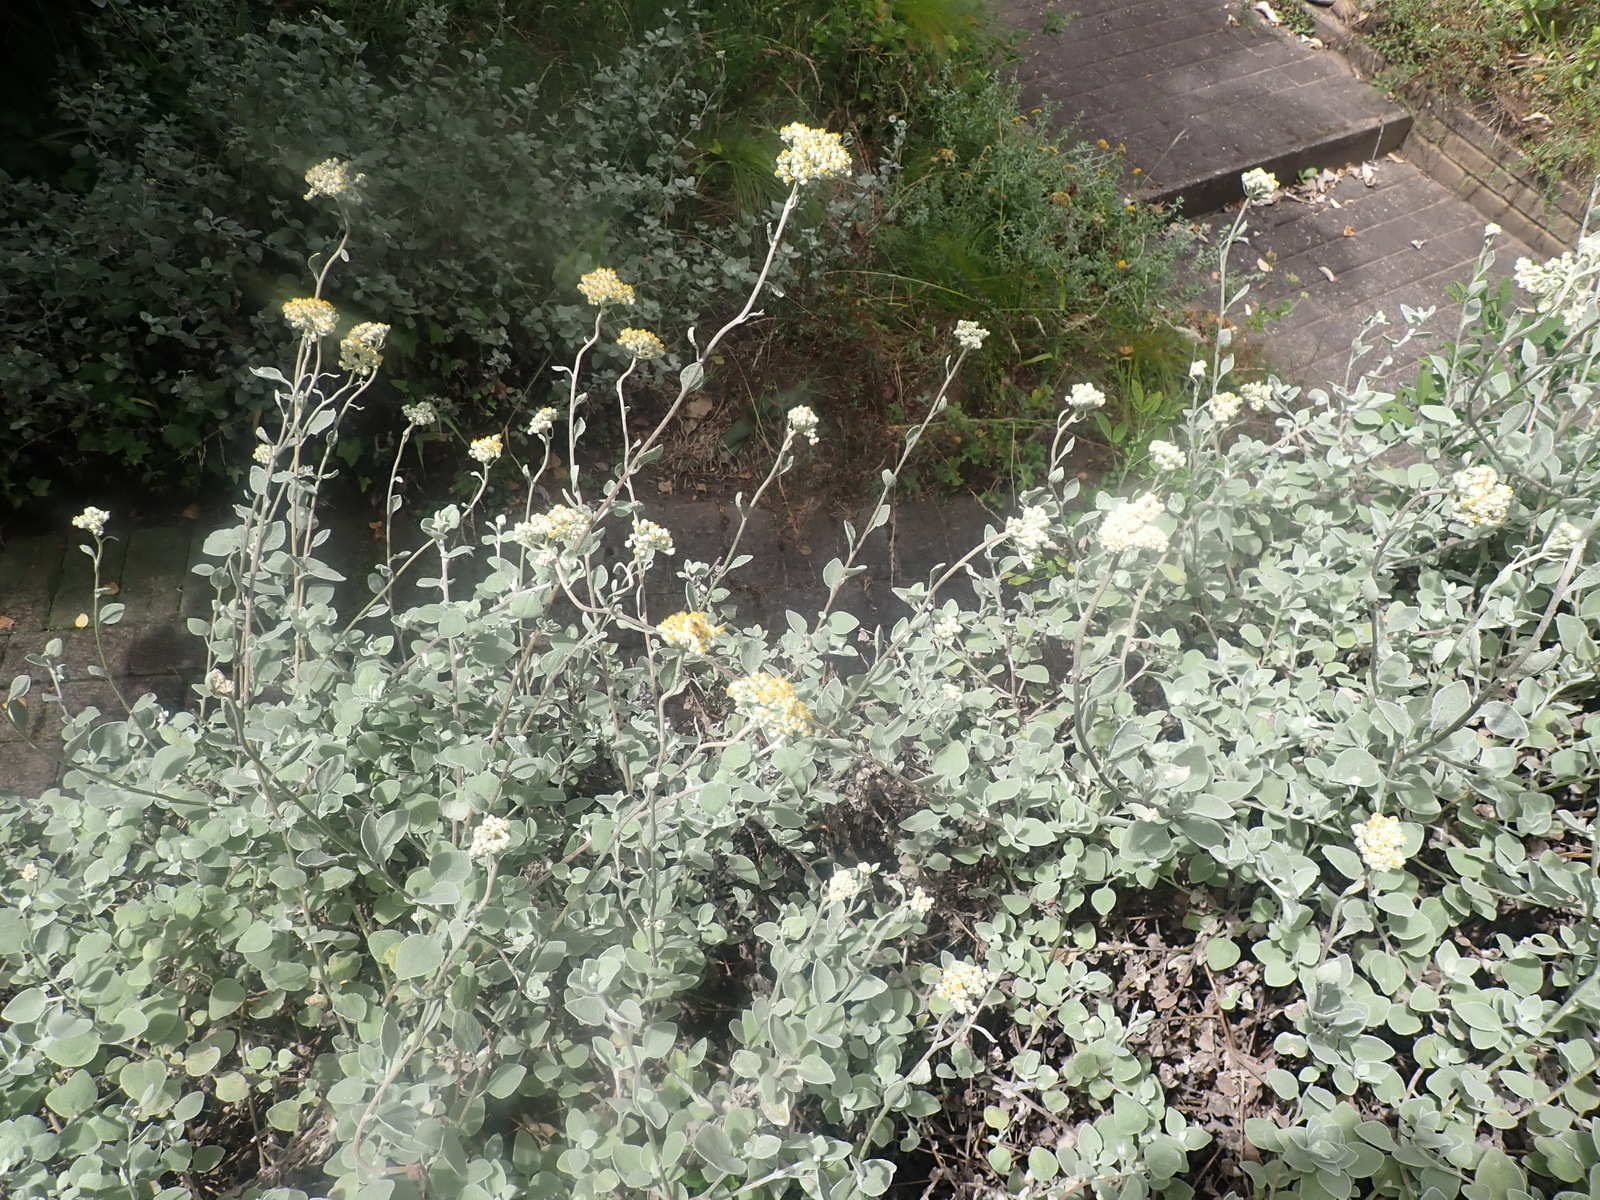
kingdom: Plantae
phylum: Tracheophyta
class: Magnoliopsida
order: Asterales
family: Asteraceae
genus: Helichrysum
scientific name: Helichrysum petiolare
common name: Licorice-plant
